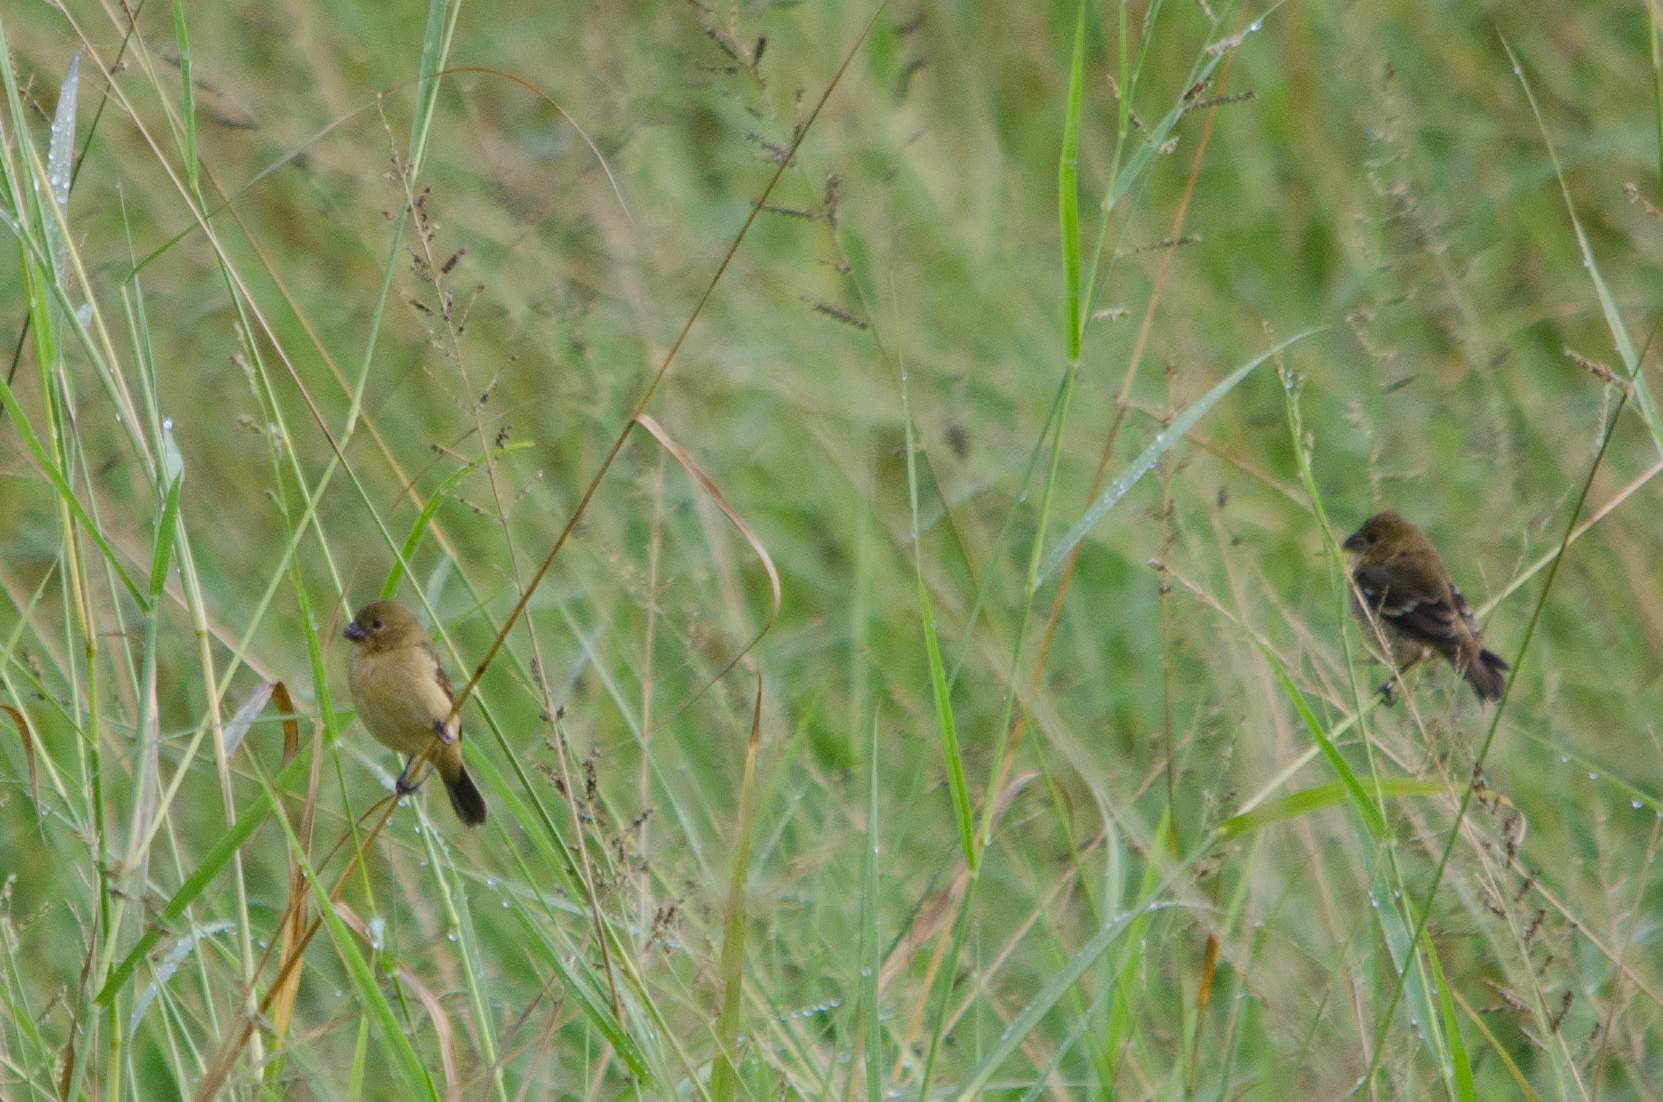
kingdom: Animalia
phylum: Chordata
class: Aves
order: Passeriformes
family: Thraupidae
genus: Sporophila
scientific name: Sporophila morelleti
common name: Morelet's seedeater
